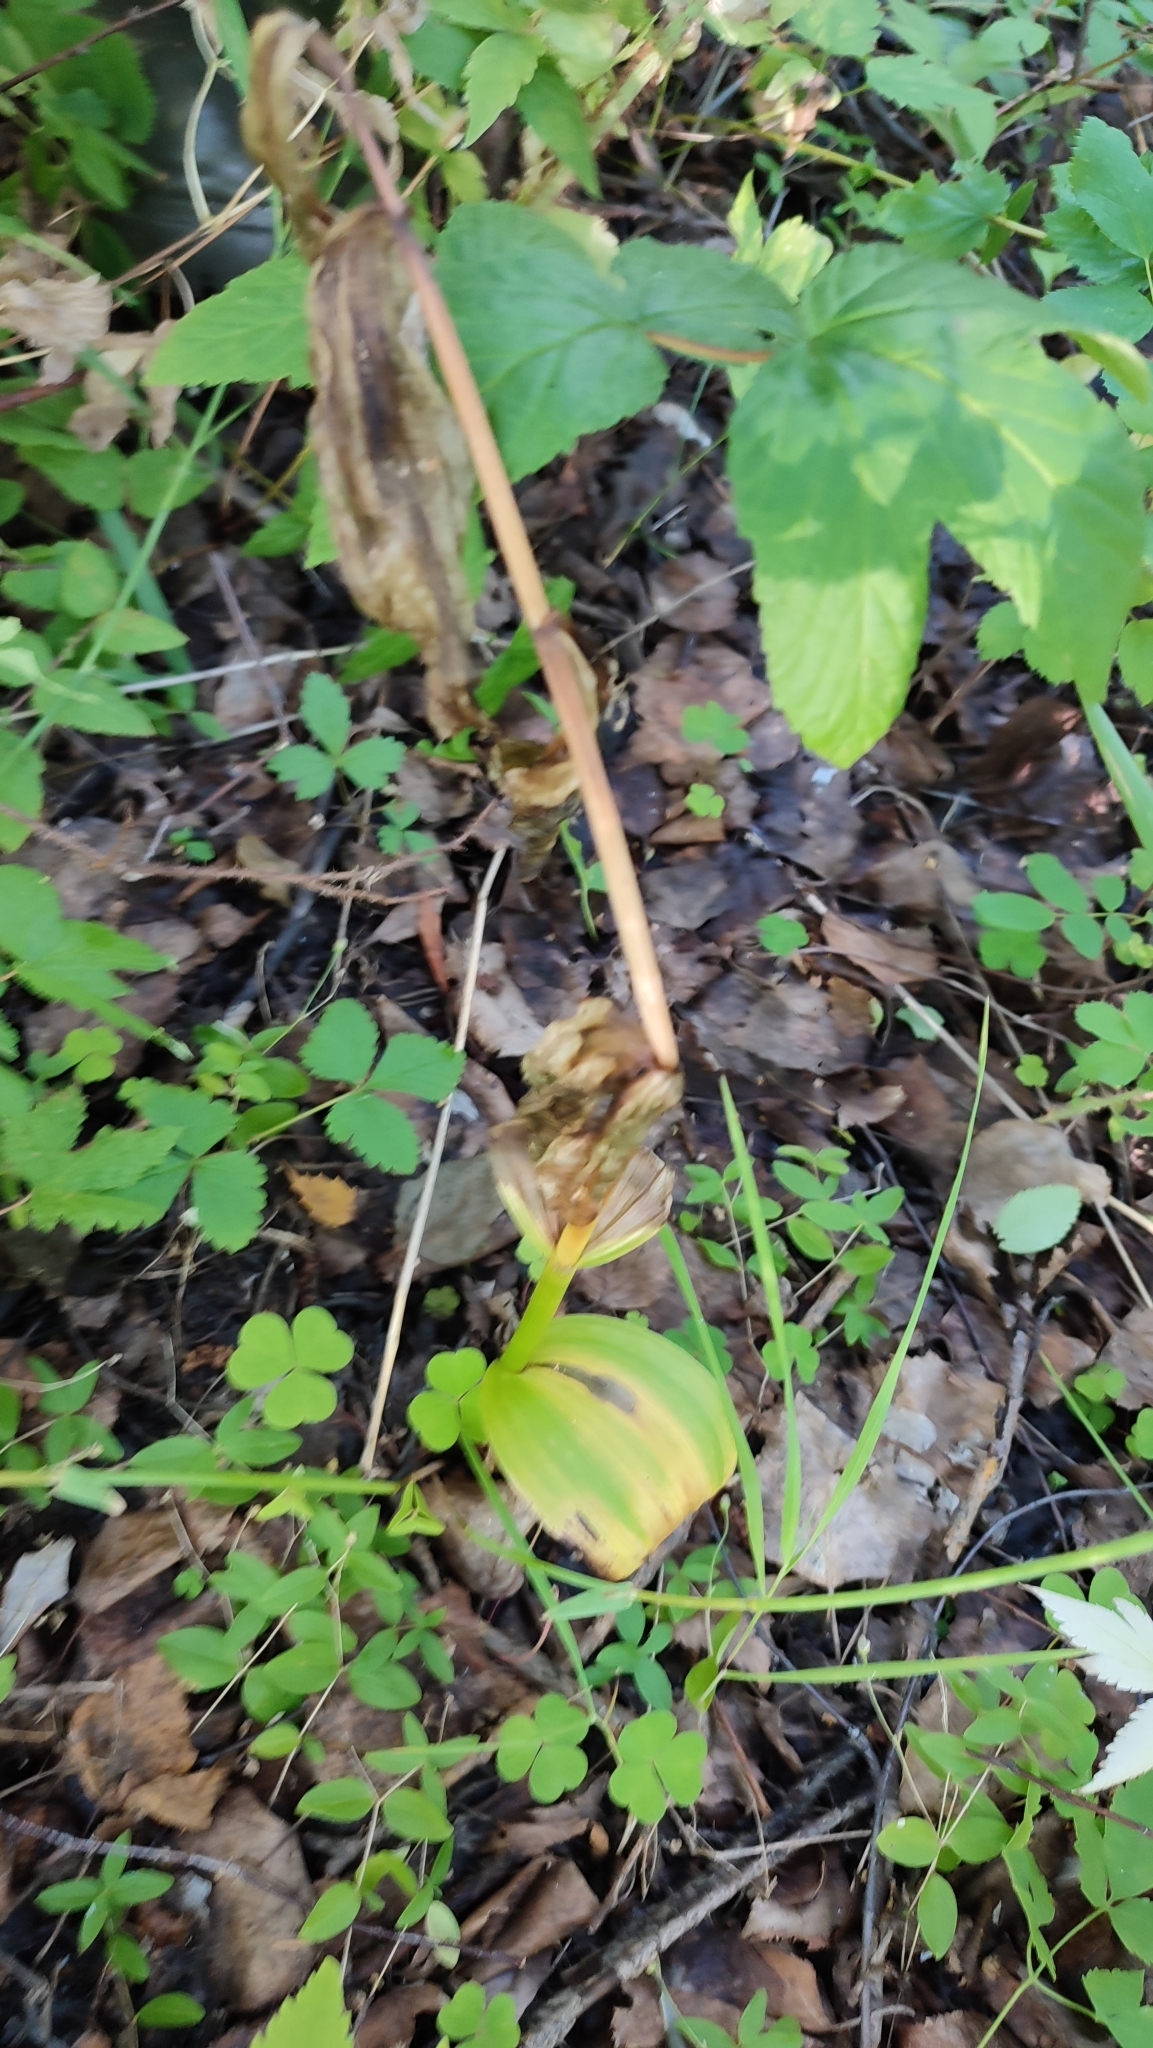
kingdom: Plantae
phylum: Tracheophyta
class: Liliopsida
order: Liliales
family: Melanthiaceae
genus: Veratrum
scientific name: Veratrum lobelianum
